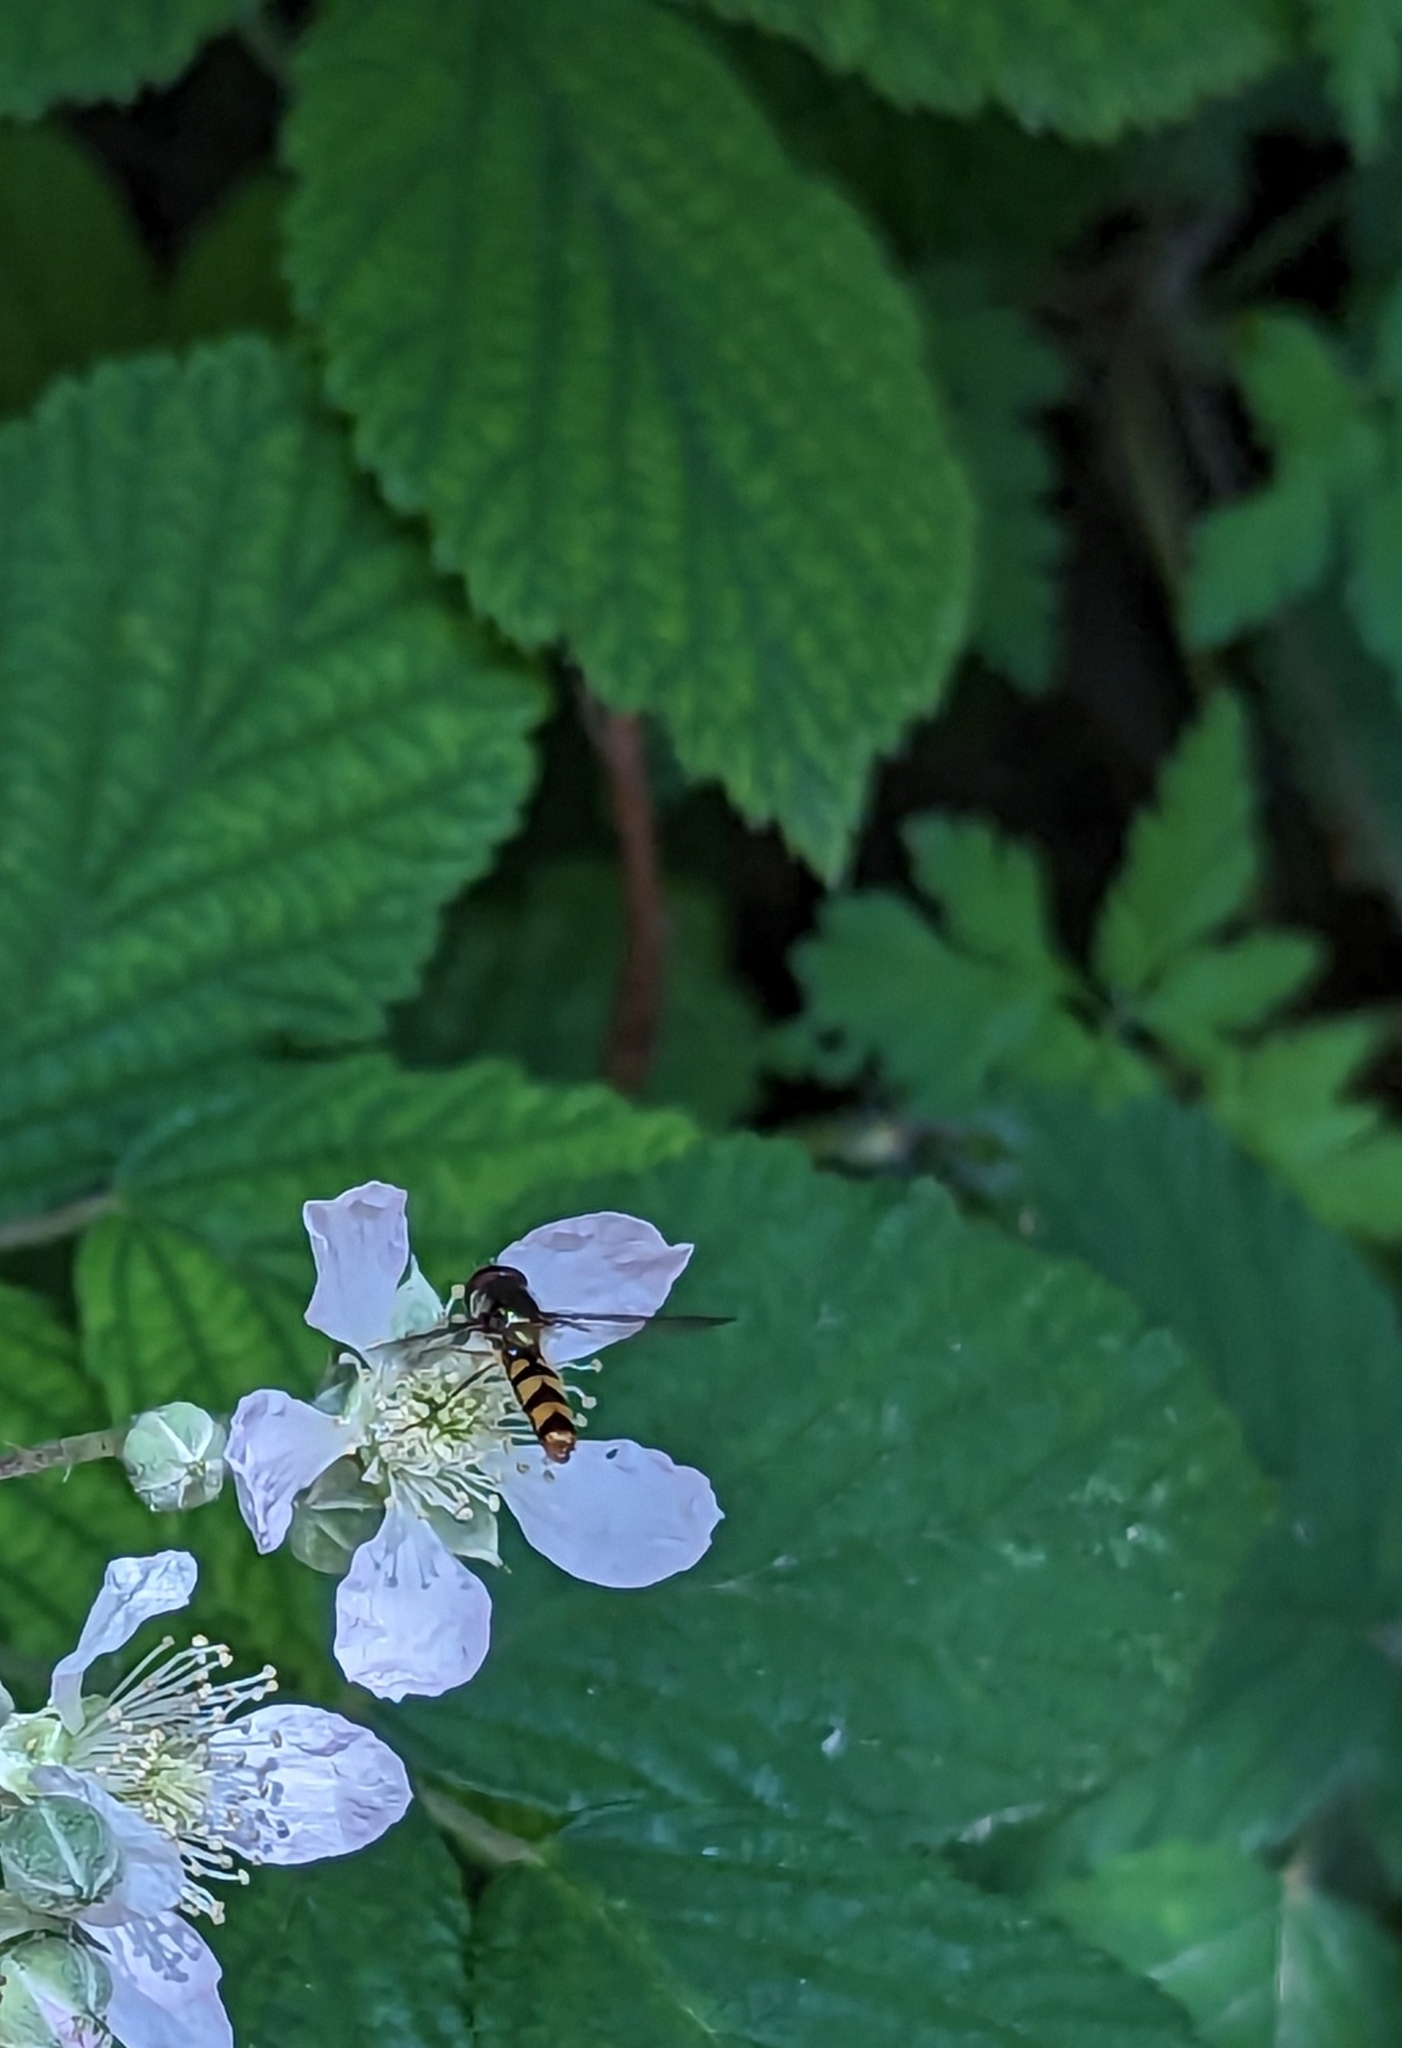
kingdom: Animalia
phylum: Arthropoda
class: Insecta
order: Diptera
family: Syrphidae
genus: Meliscaeva
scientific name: Meliscaeva auricollis
